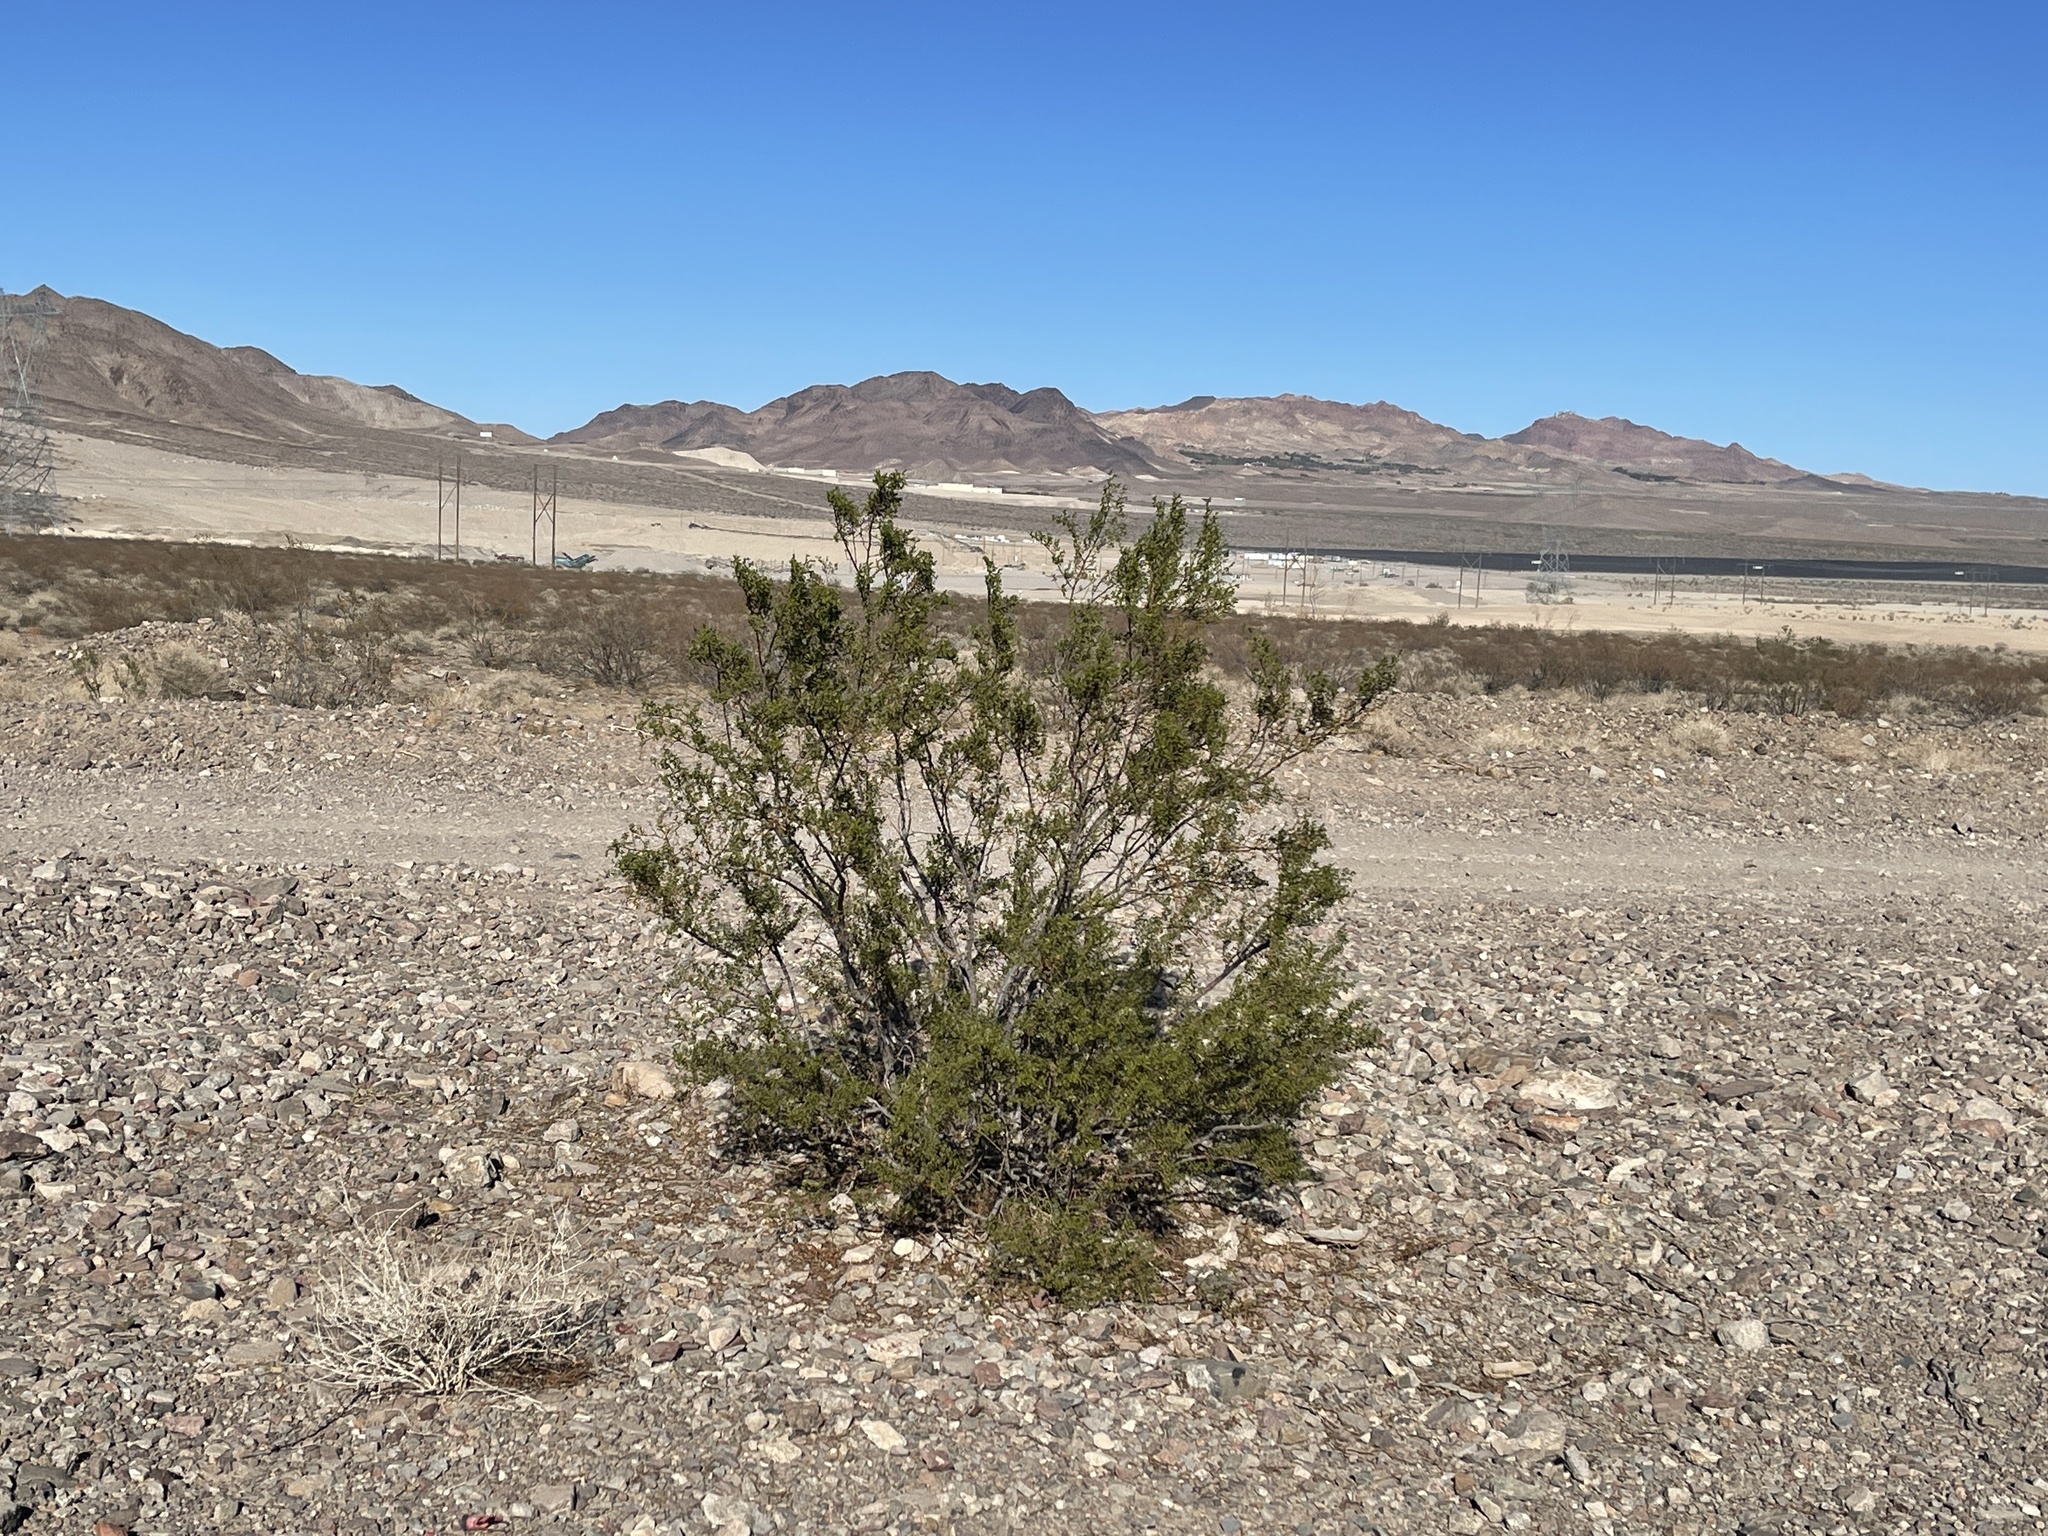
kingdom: Plantae
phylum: Tracheophyta
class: Magnoliopsida
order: Zygophyllales
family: Zygophyllaceae
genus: Larrea
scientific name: Larrea tridentata
